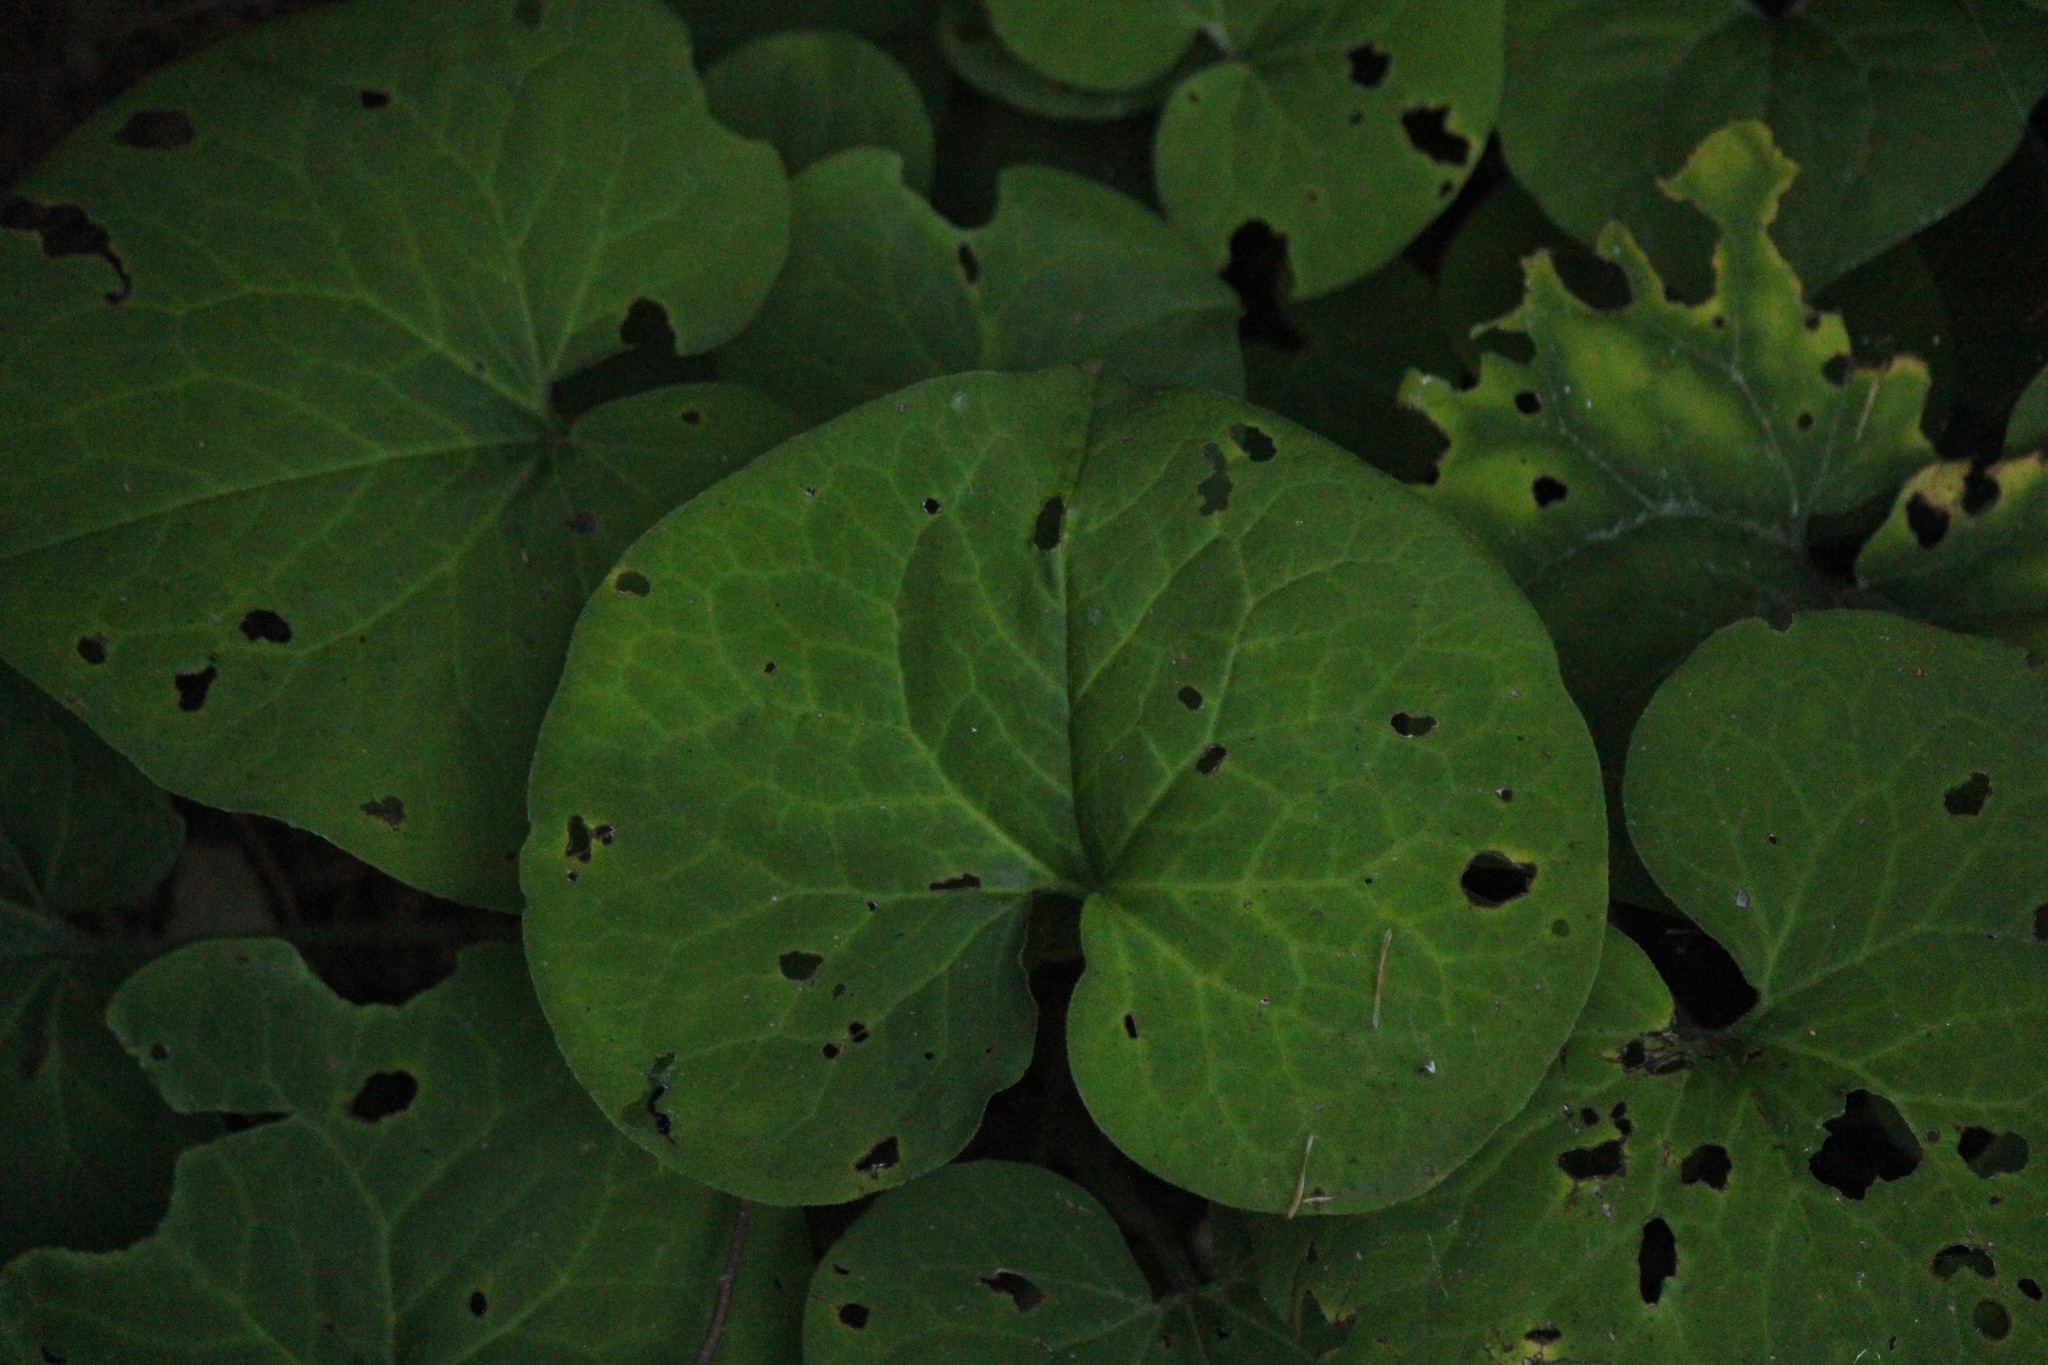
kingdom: Plantae
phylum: Tracheophyta
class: Magnoliopsida
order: Piperales
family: Aristolochiaceae
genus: Asarum
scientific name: Asarum canadense
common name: Wild ginger
